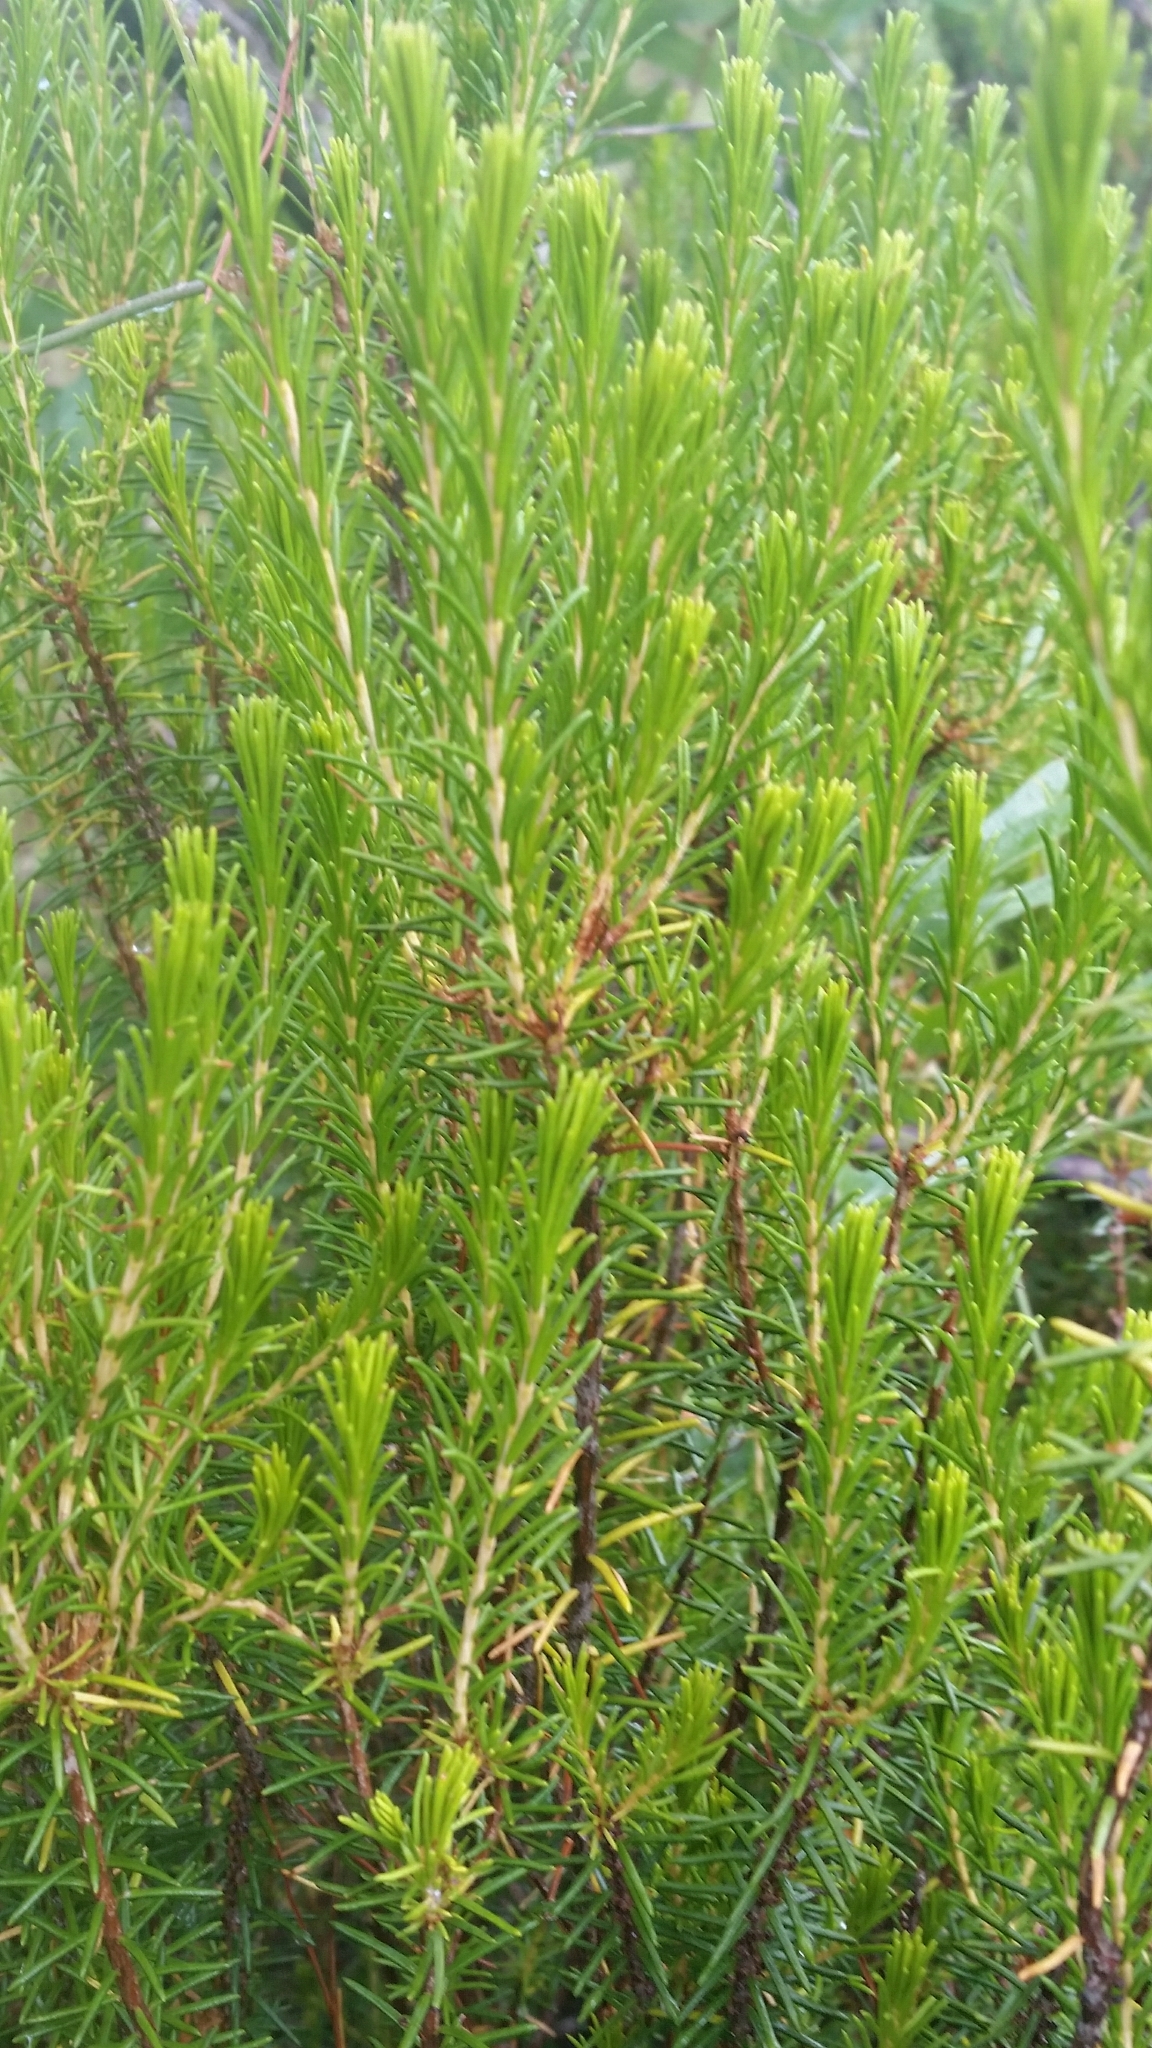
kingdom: Plantae
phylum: Tracheophyta
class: Magnoliopsida
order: Ericales
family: Ericaceae
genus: Ceratiola
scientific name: Ceratiola ericoides
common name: Sandhill-rosemary
